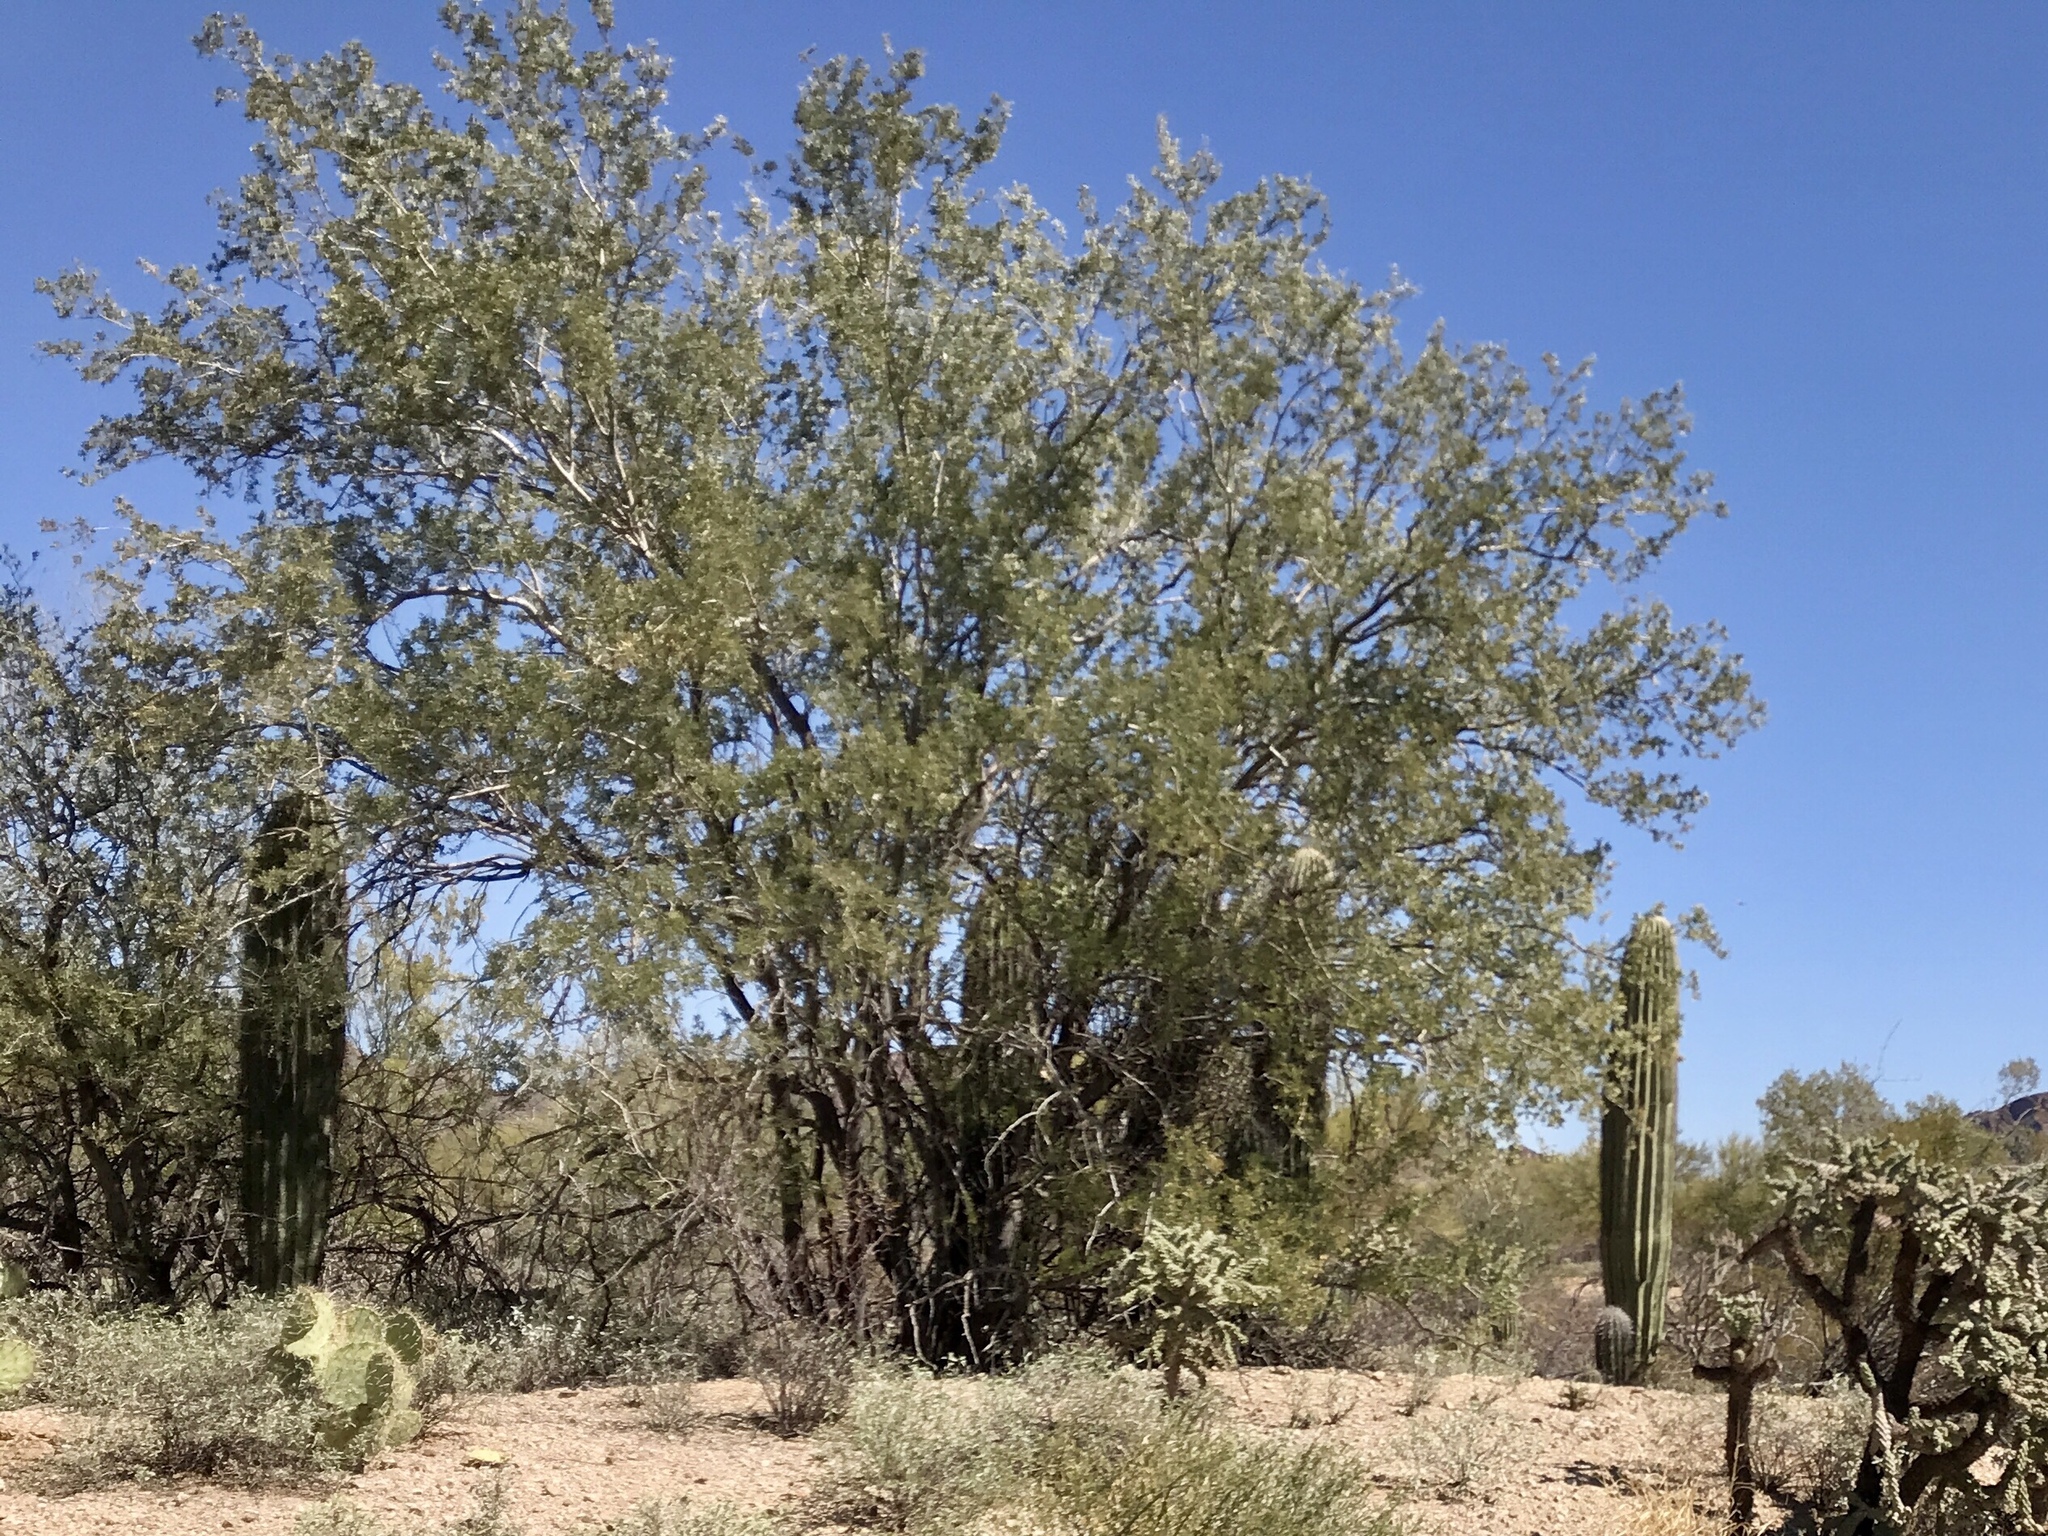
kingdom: Plantae
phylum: Tracheophyta
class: Magnoliopsida
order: Fabales
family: Fabaceae
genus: Olneya
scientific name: Olneya tesota
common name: Desert ironwood
